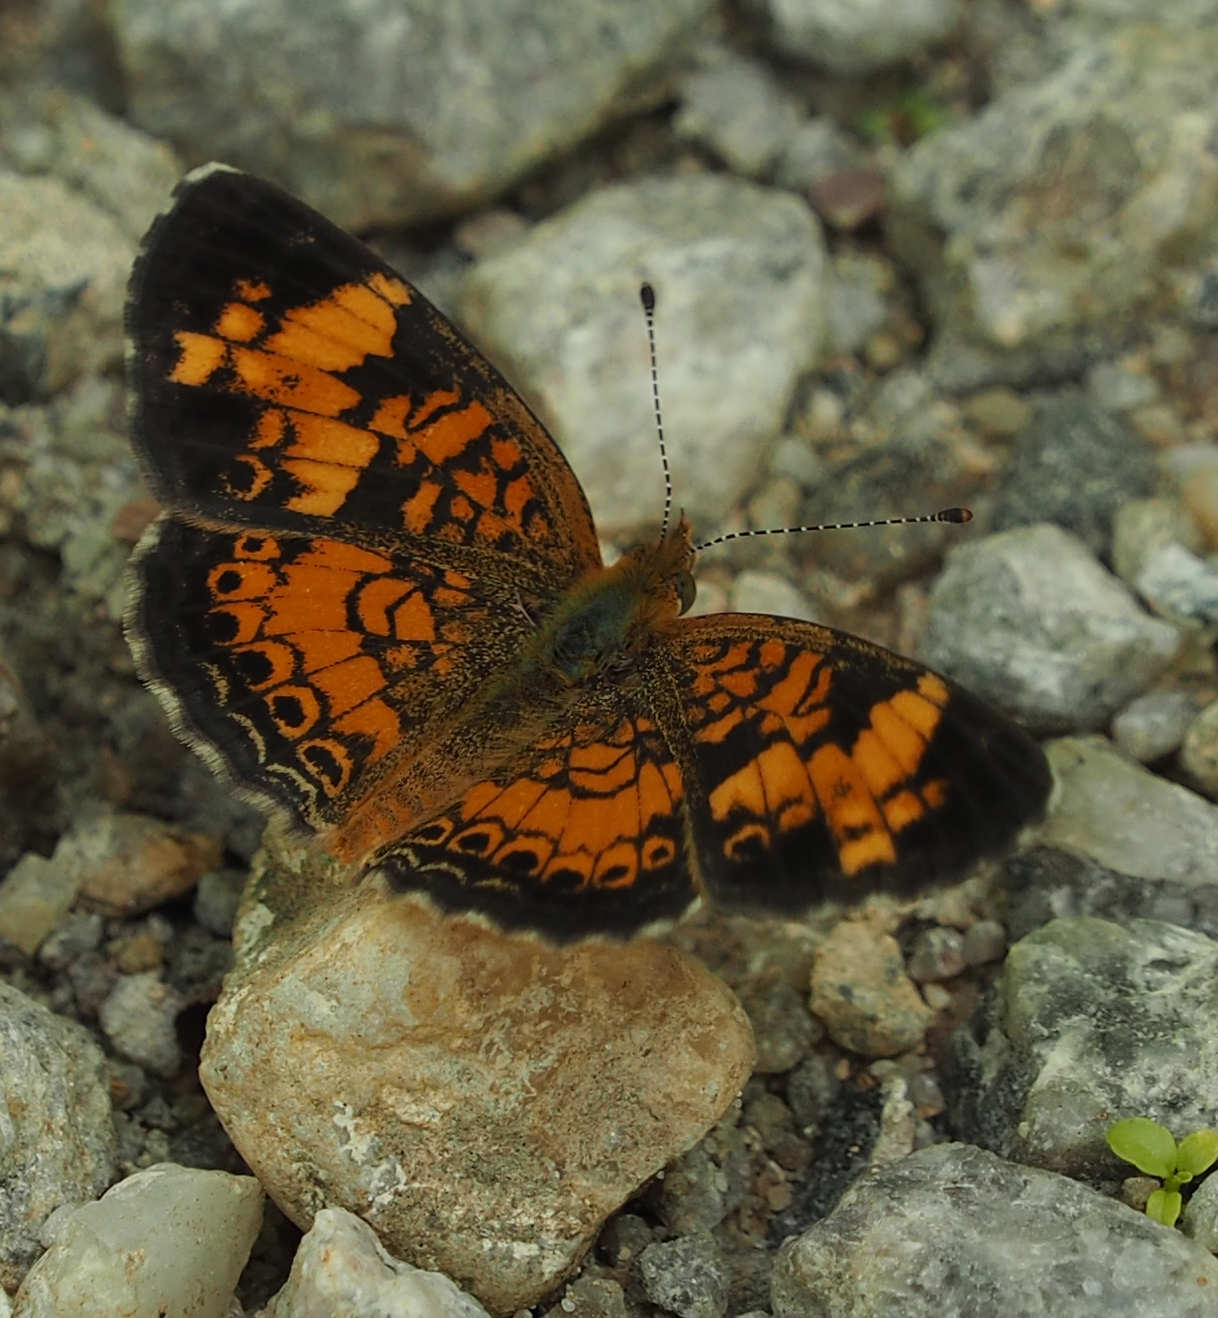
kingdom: Animalia
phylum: Arthropoda
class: Insecta
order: Lepidoptera
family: Nymphalidae
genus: Phyciodes
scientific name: Phyciodes tharos
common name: Pearl crescent
